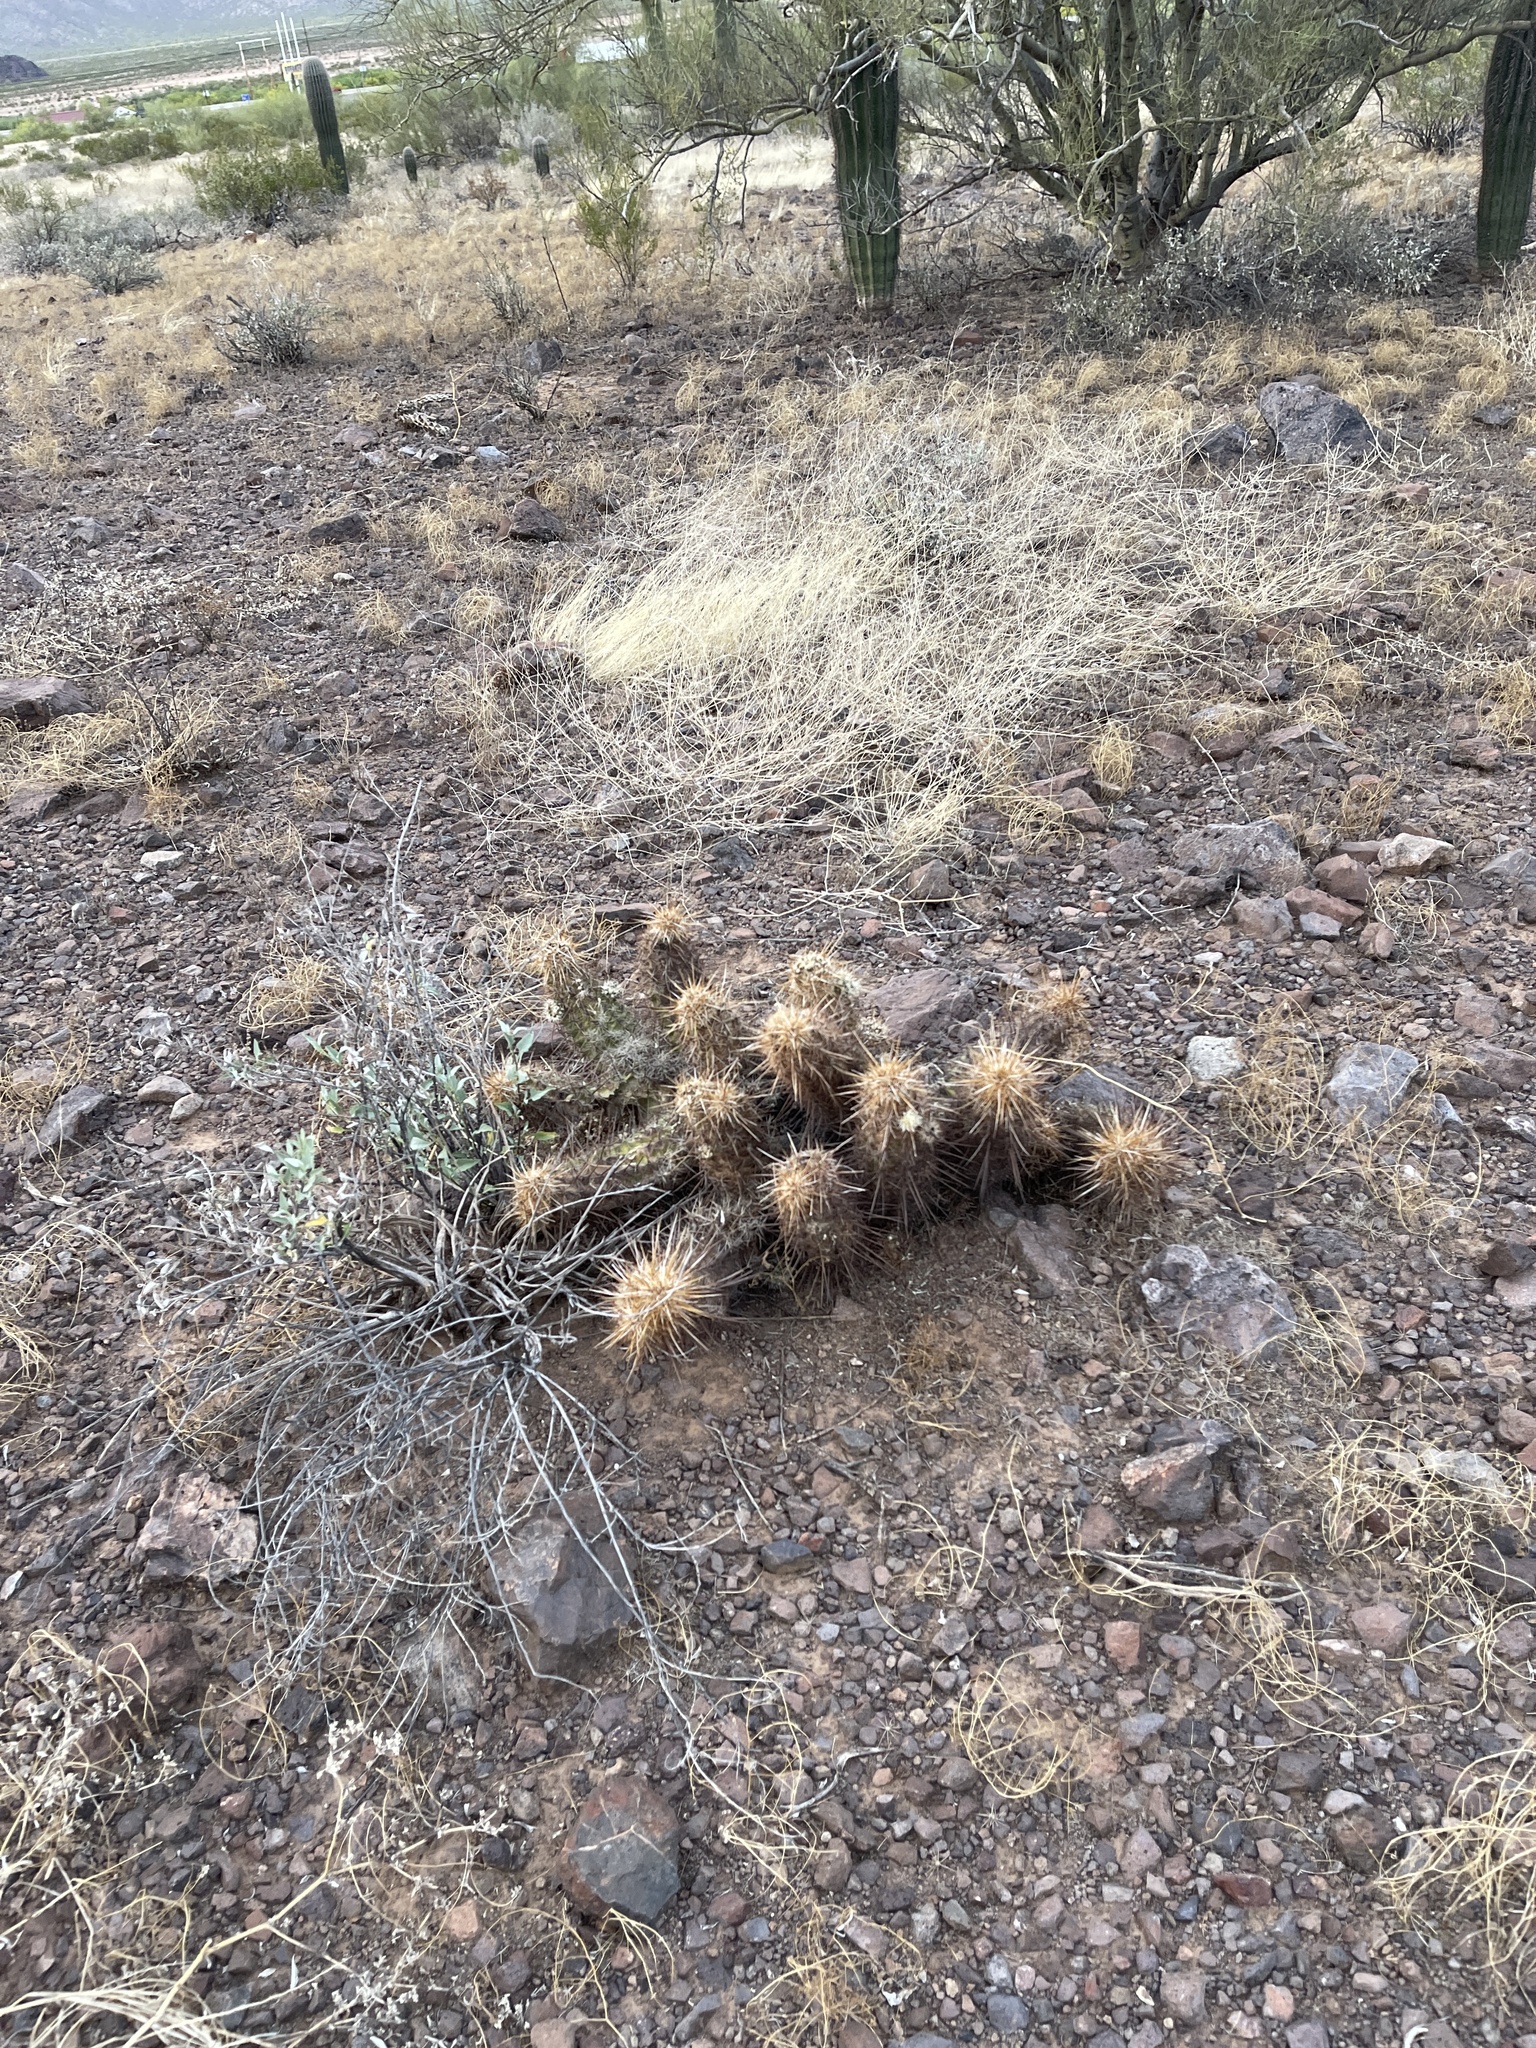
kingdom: Plantae
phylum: Tracheophyta
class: Magnoliopsida
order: Caryophyllales
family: Cactaceae
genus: Echinocereus
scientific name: Echinocereus engelmannii
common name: Engelmann's hedgehog cactus
